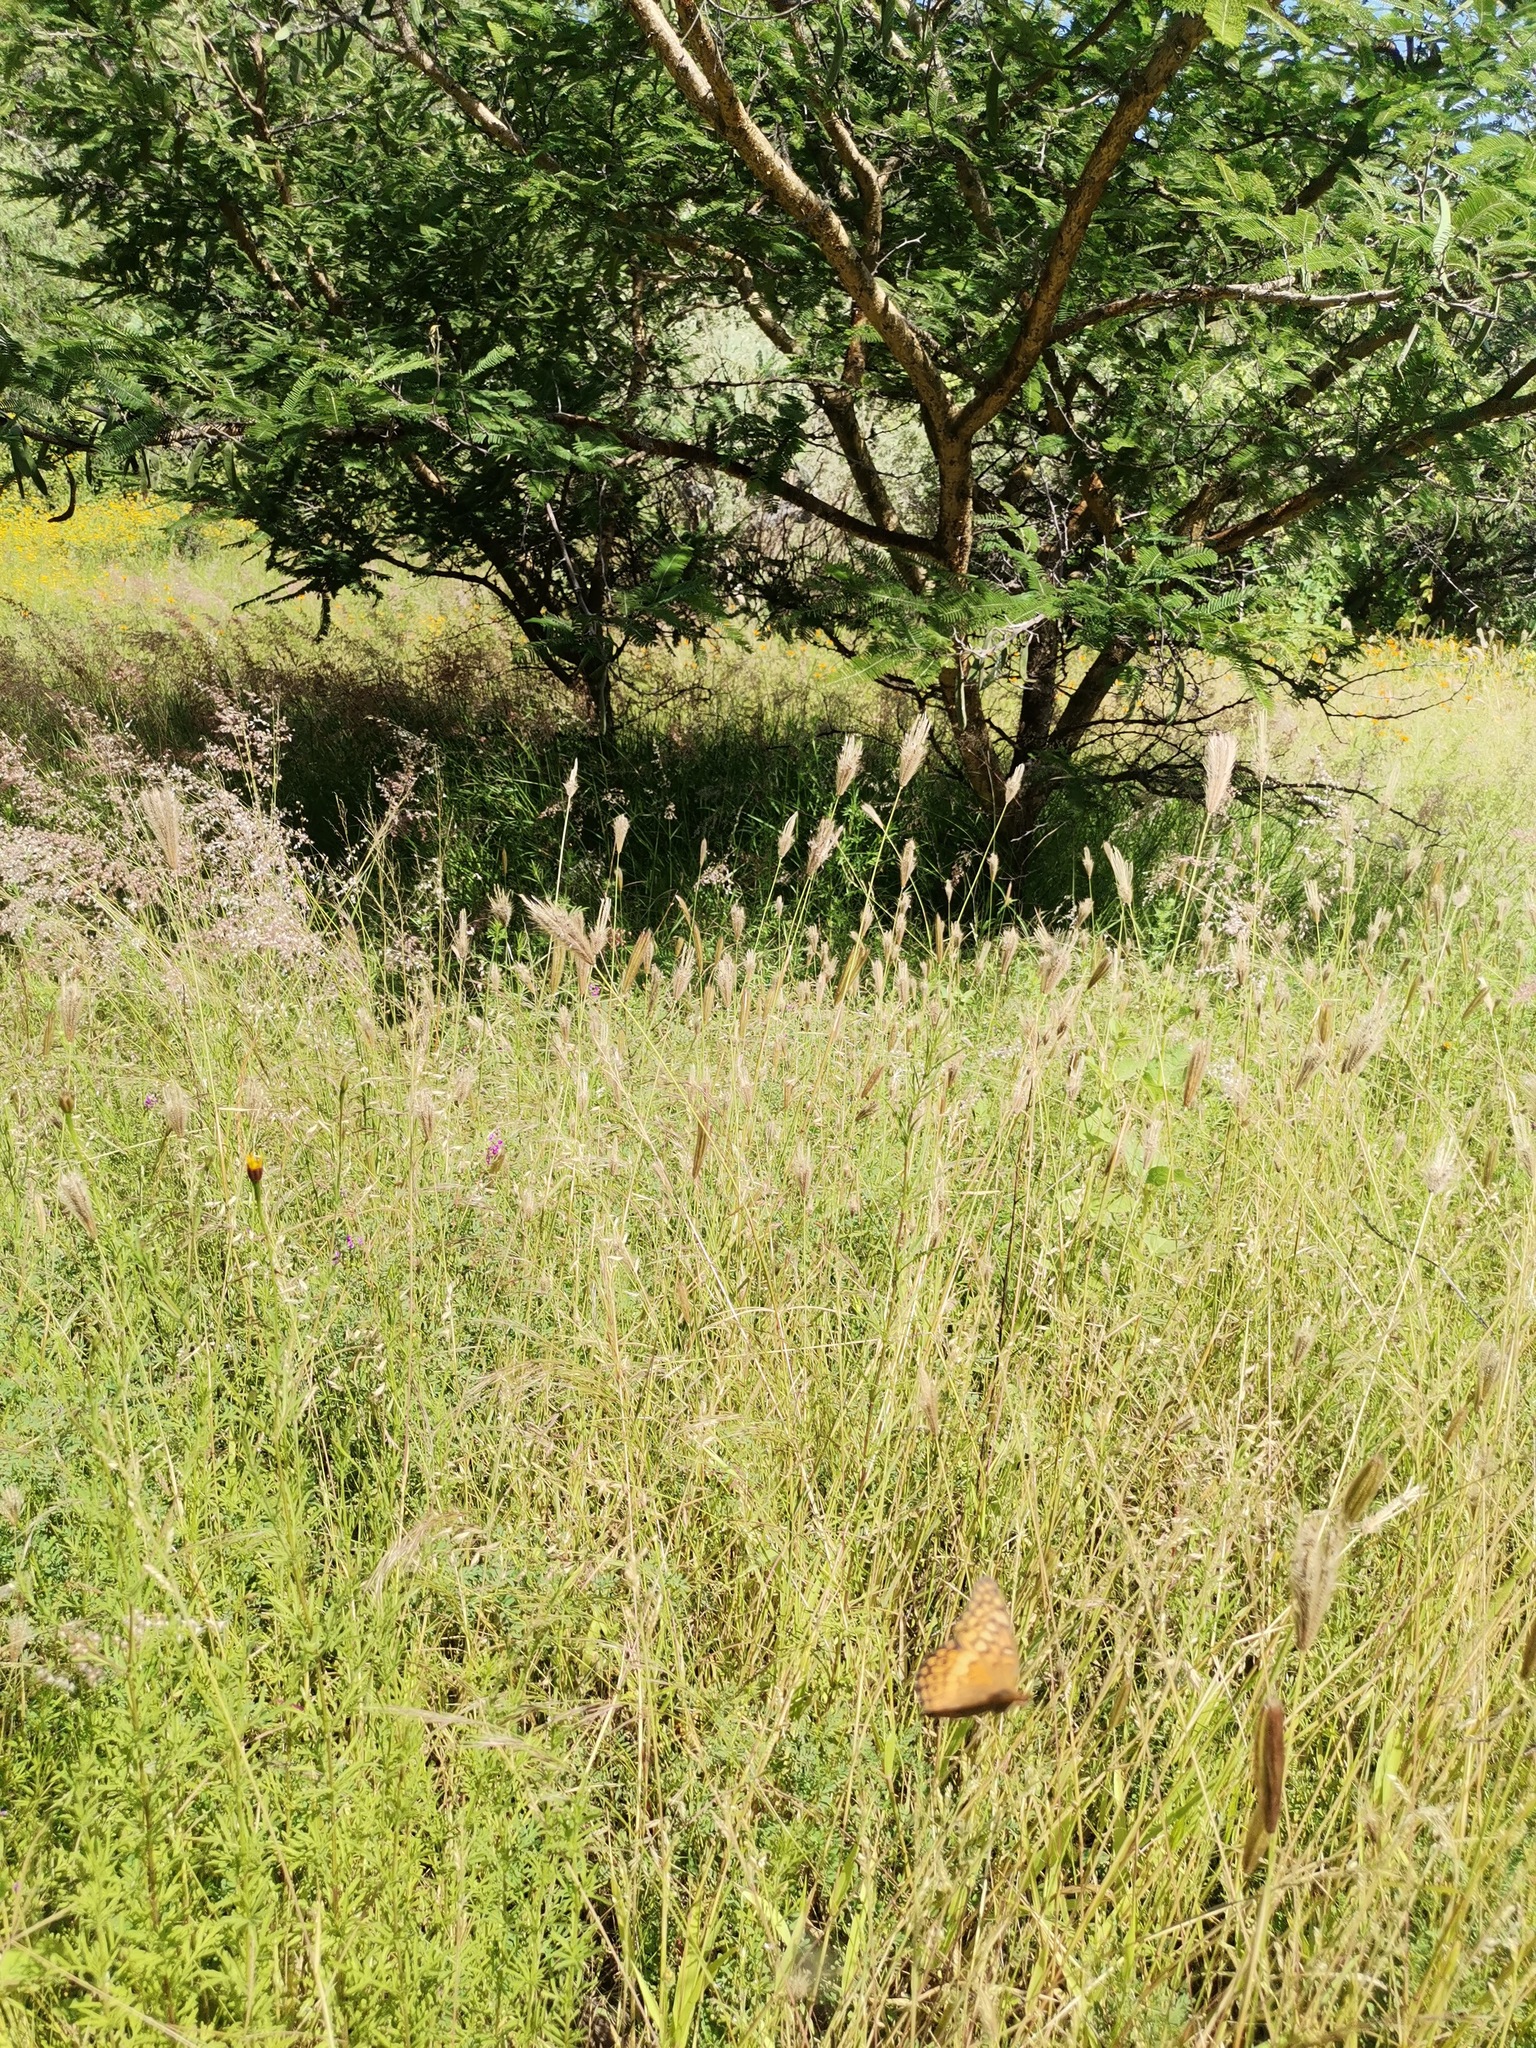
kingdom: Animalia
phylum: Arthropoda
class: Insecta
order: Lepidoptera
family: Nymphalidae
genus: Euptoieta
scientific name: Euptoieta claudia
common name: Variegated fritillary
